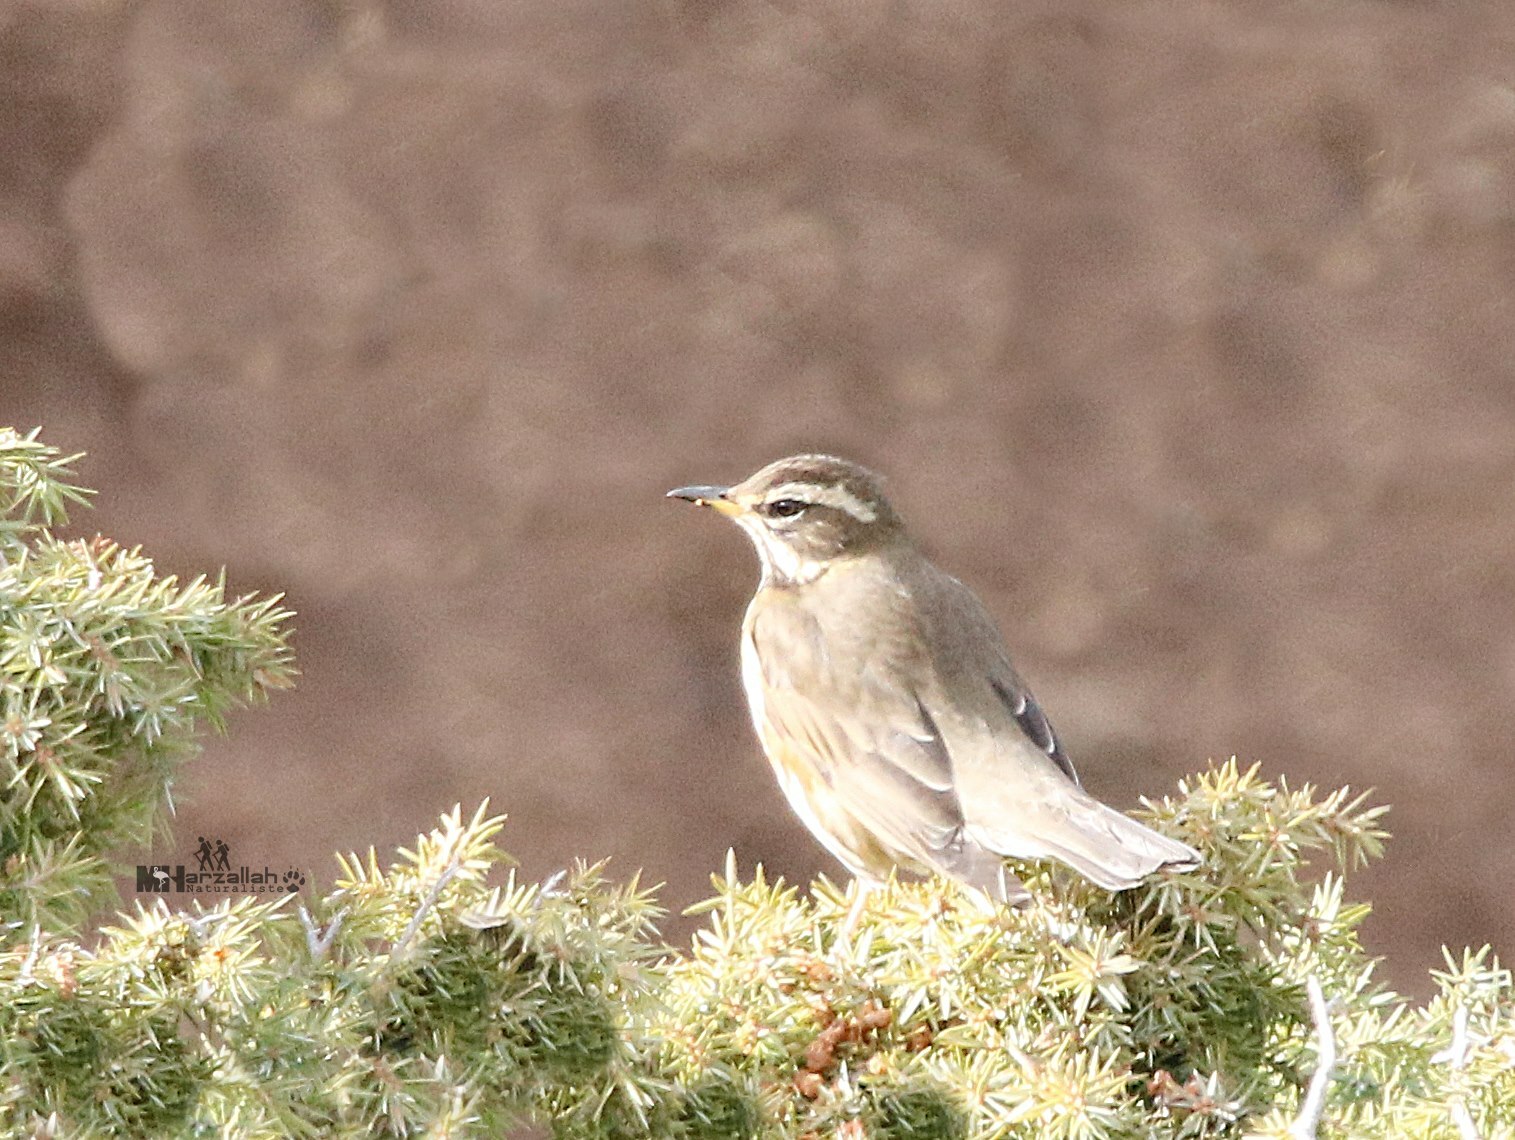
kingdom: Animalia
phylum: Chordata
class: Aves
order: Passeriformes
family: Turdidae
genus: Turdus
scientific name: Turdus iliacus
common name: Redwing
